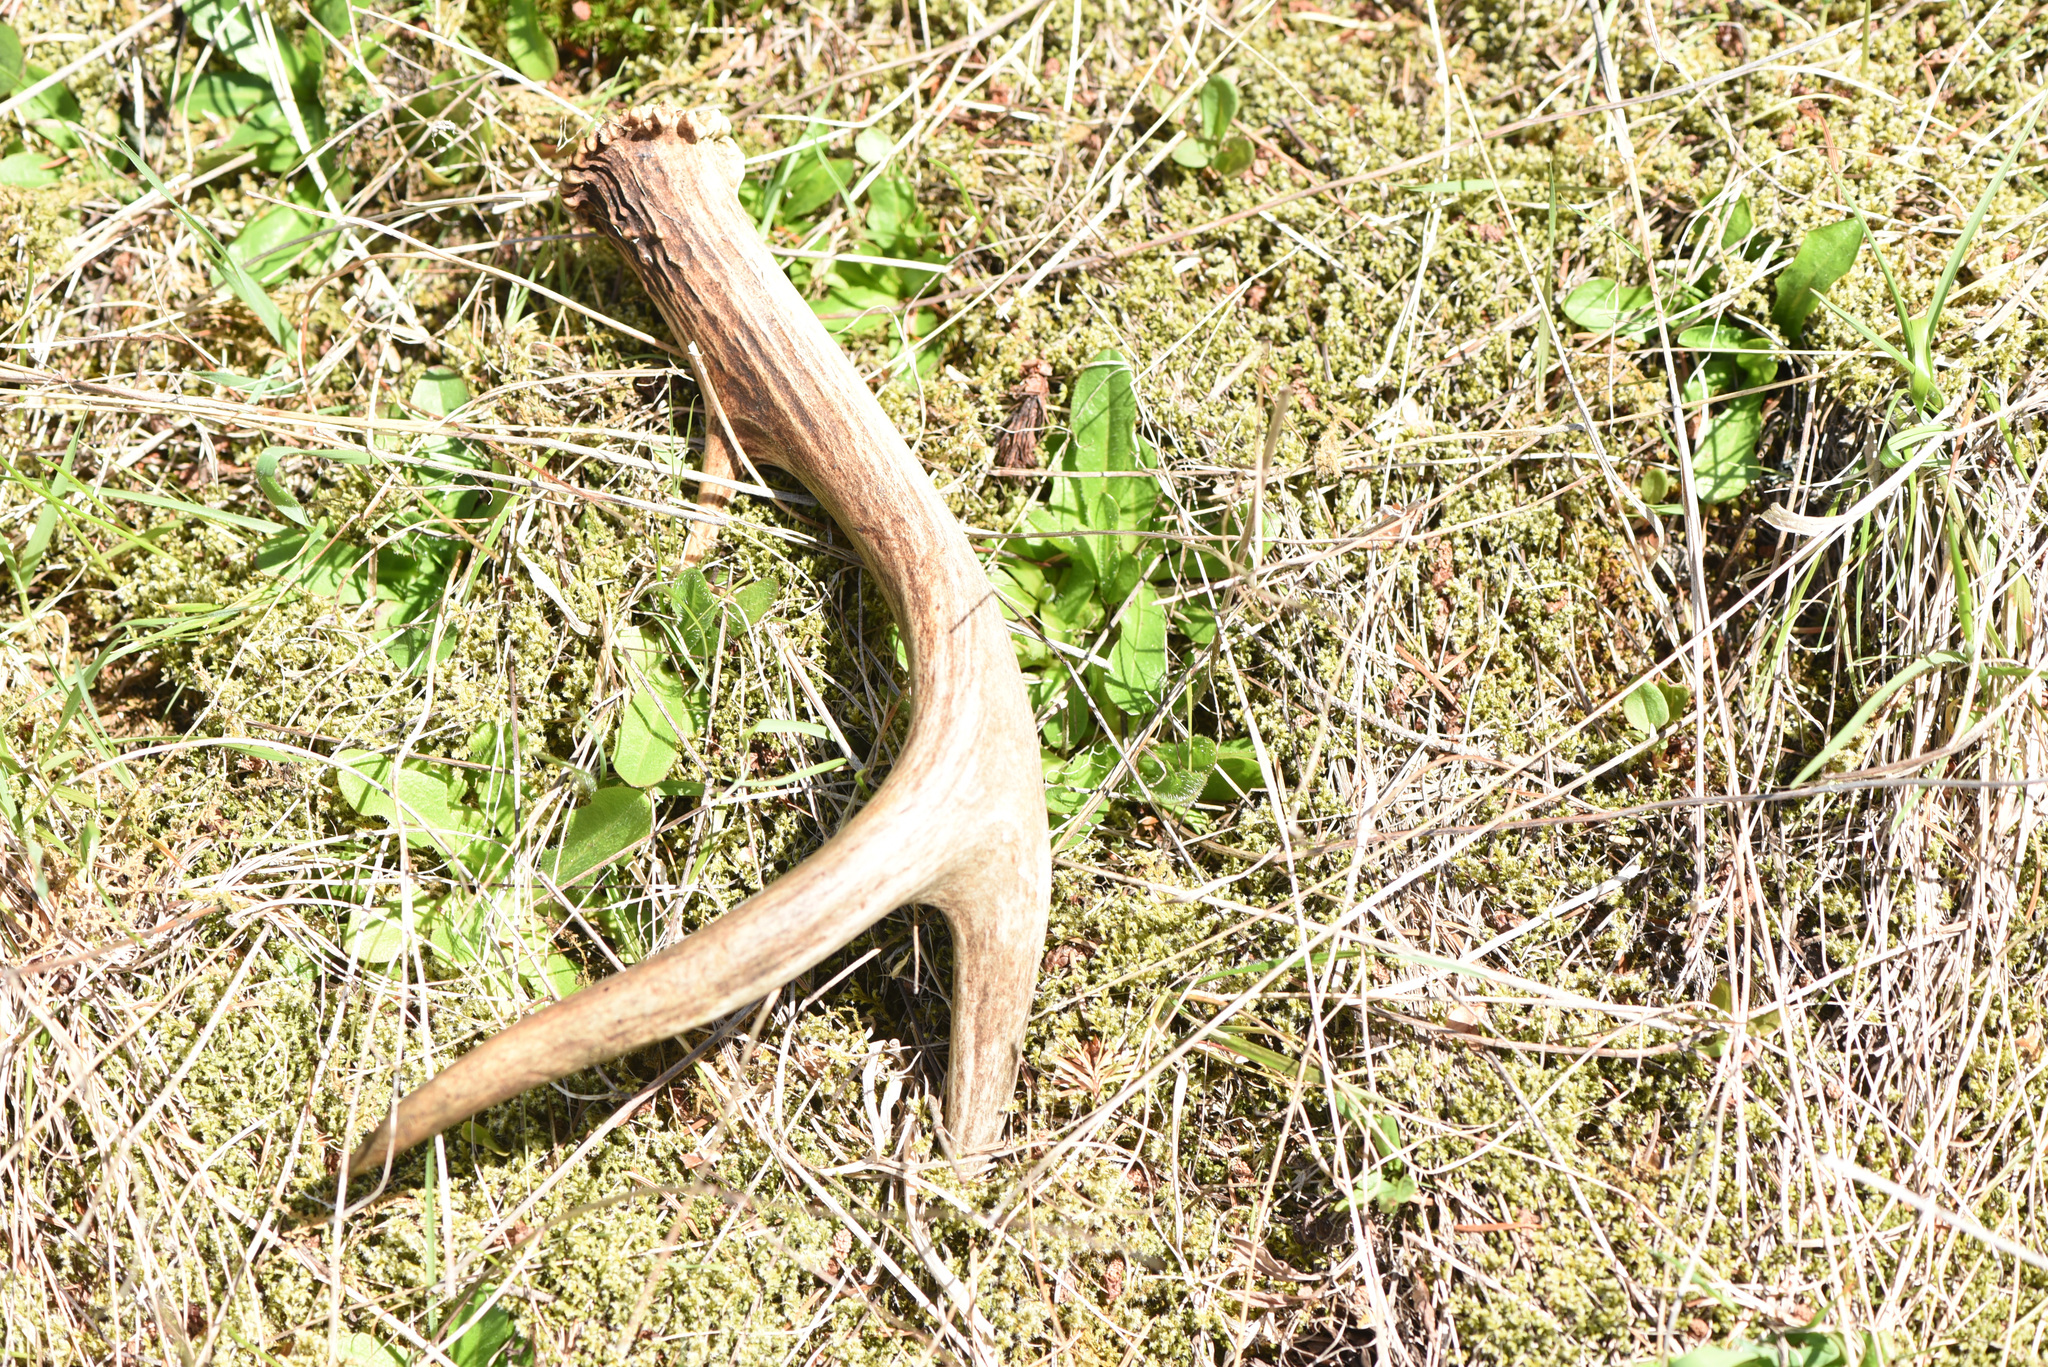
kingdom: Animalia
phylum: Chordata
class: Mammalia
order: Artiodactyla
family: Cervidae
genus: Odocoileus
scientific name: Odocoileus hemionus
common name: Mule deer
